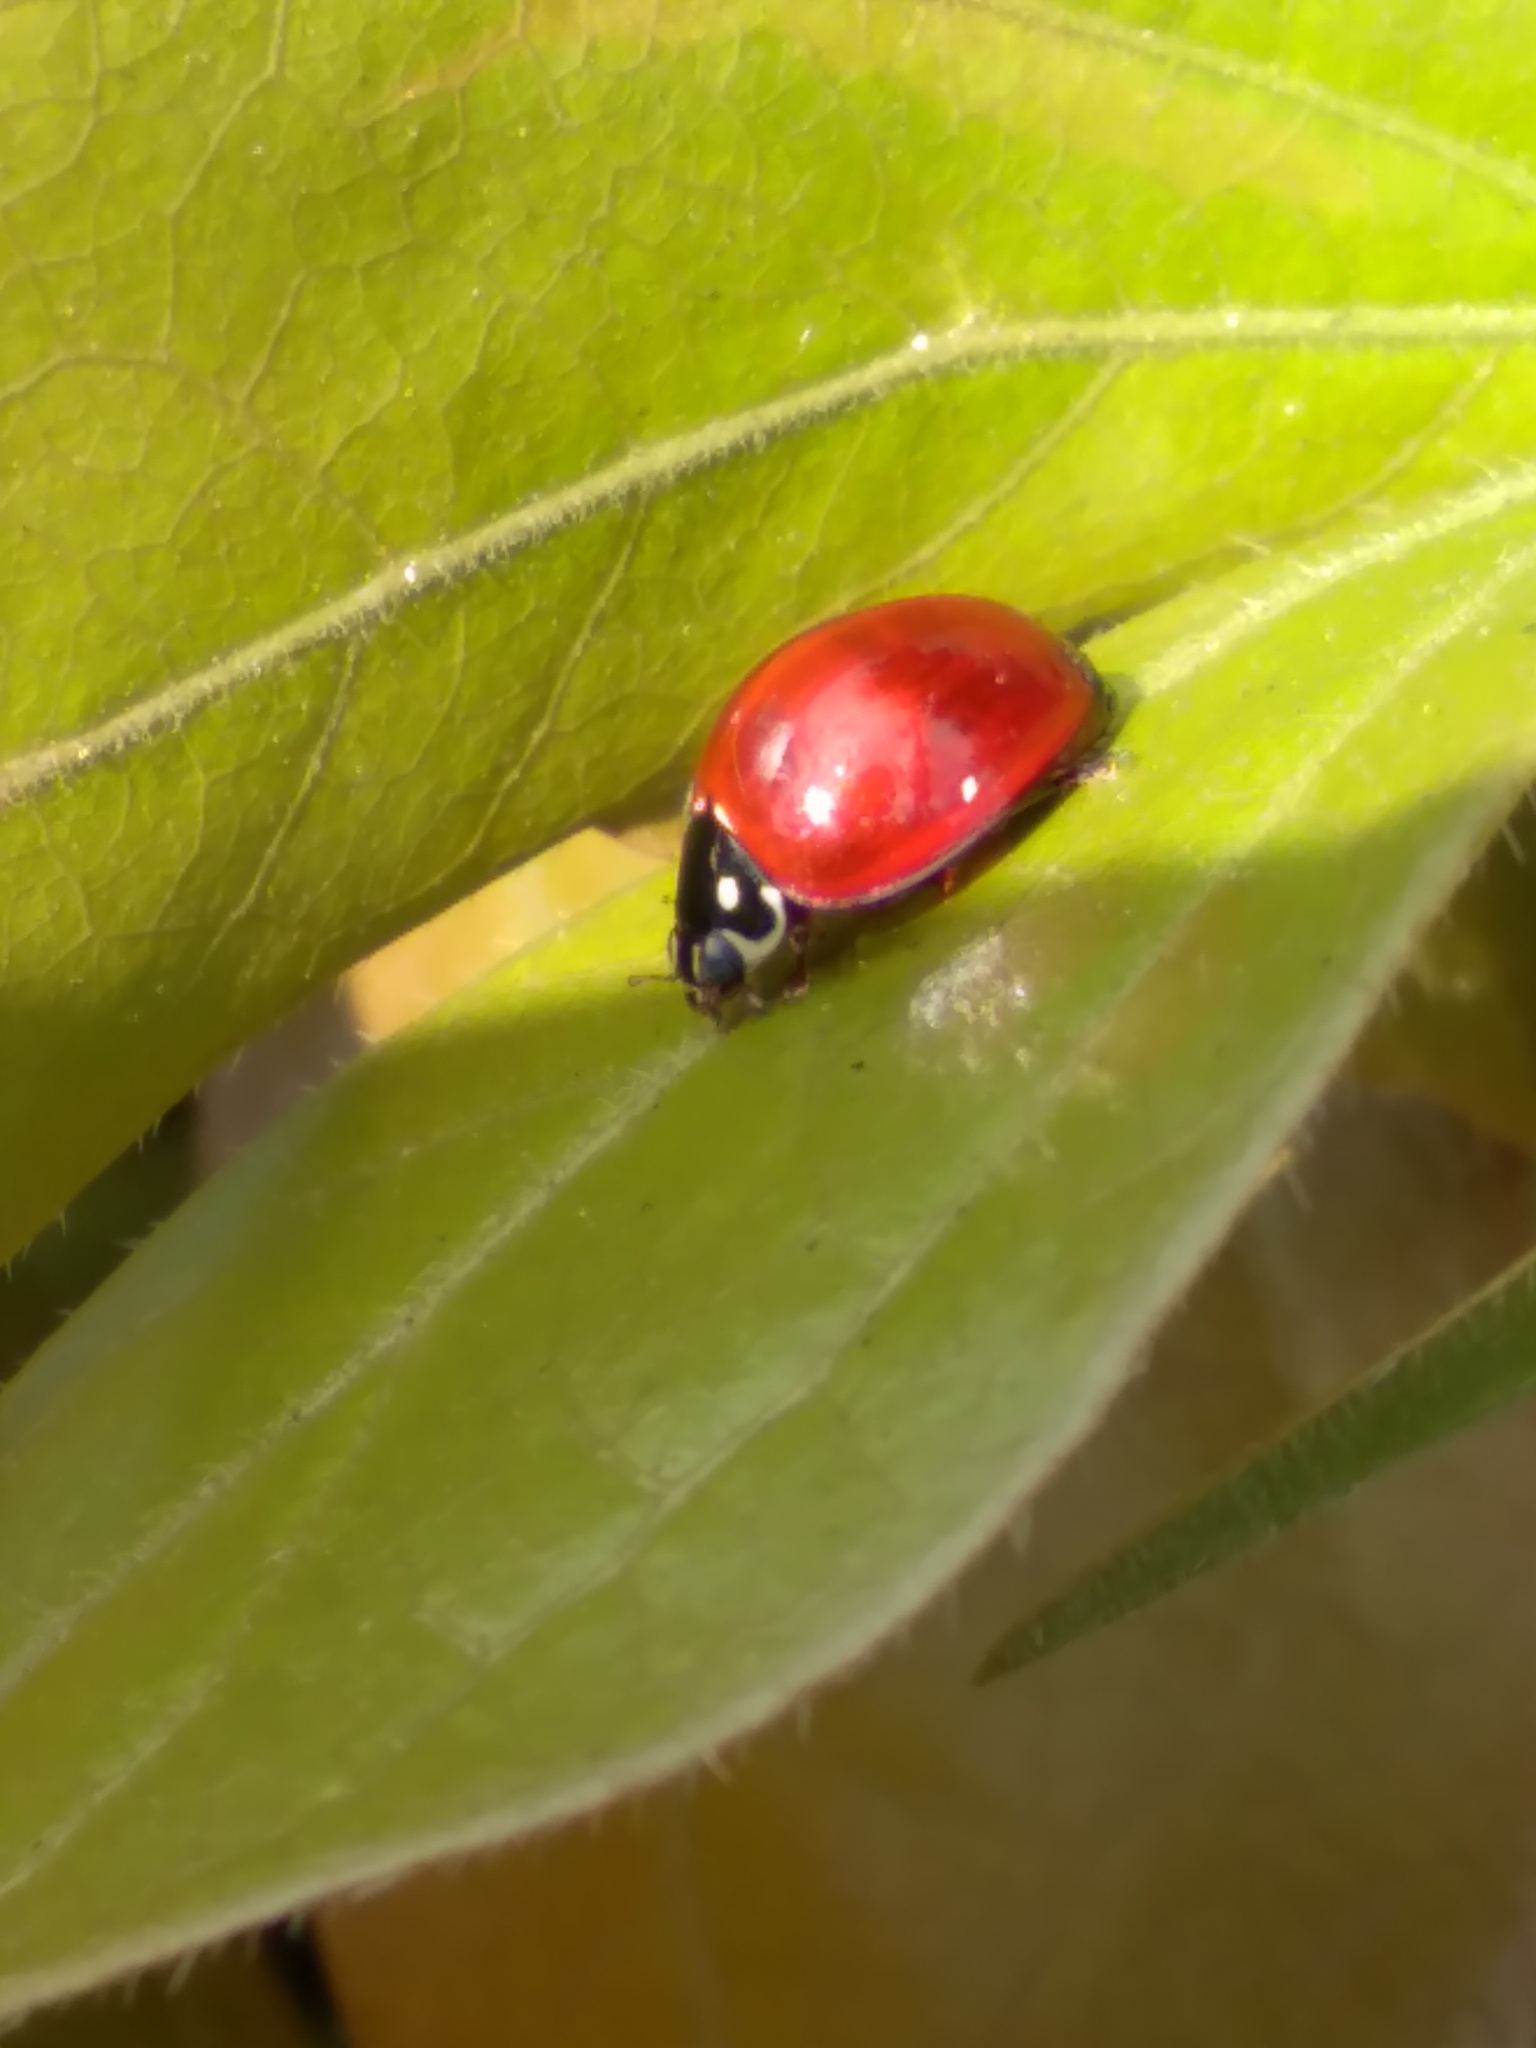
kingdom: Animalia
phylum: Arthropoda
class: Insecta
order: Coleoptera
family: Coccinellidae
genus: Cycloneda
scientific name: Cycloneda sanguinea
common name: Ladybird beetle
